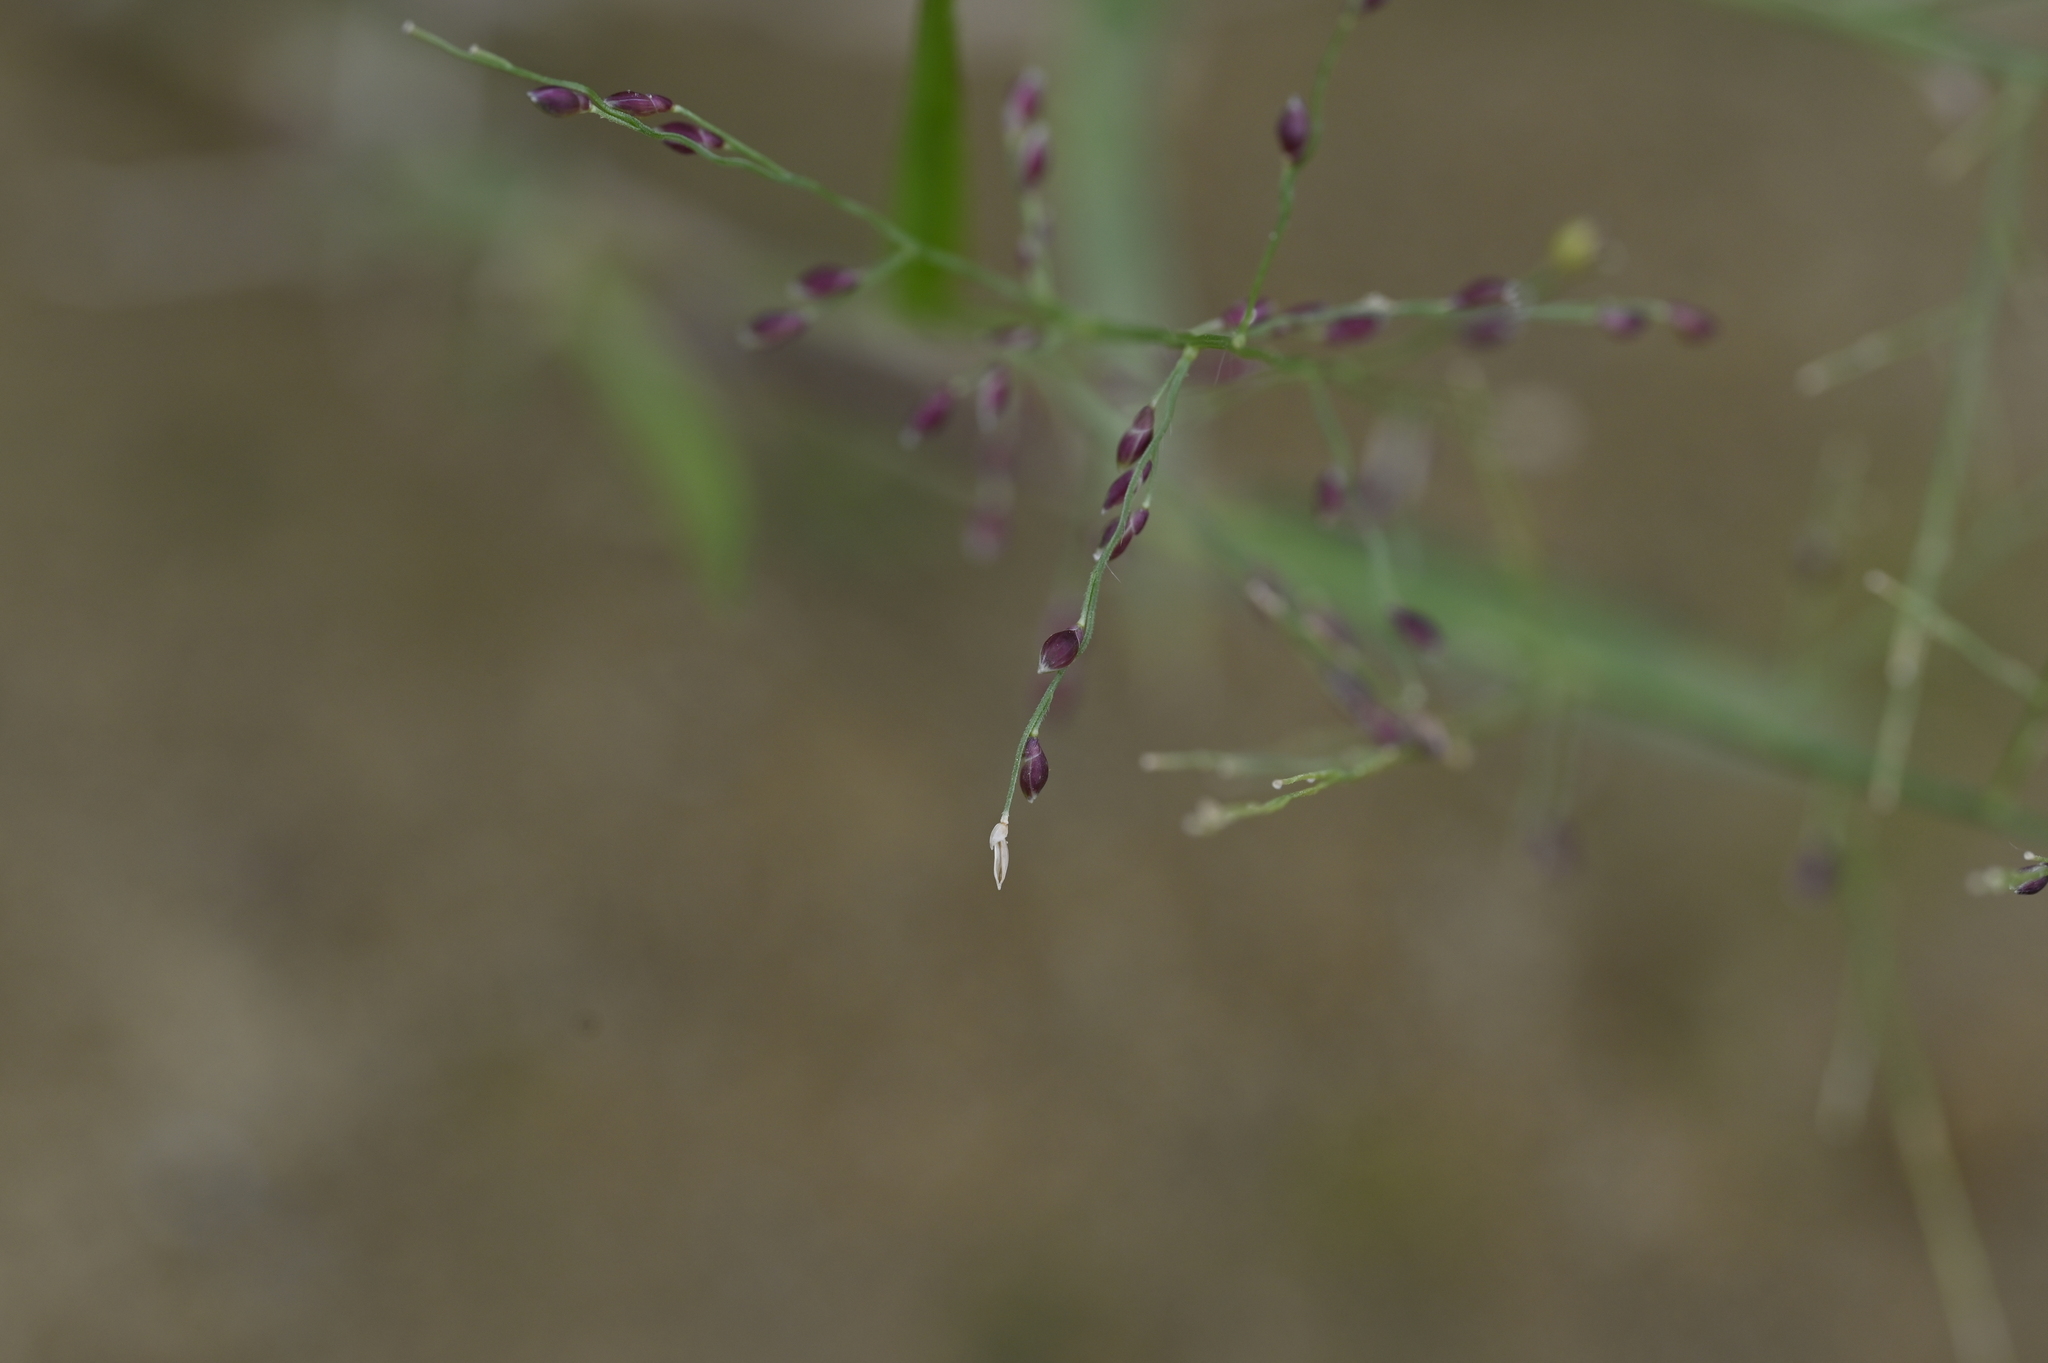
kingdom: Plantae
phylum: Tracheophyta
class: Liliopsida
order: Poales
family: Poaceae
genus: Panicum
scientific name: Panicum luzonense
